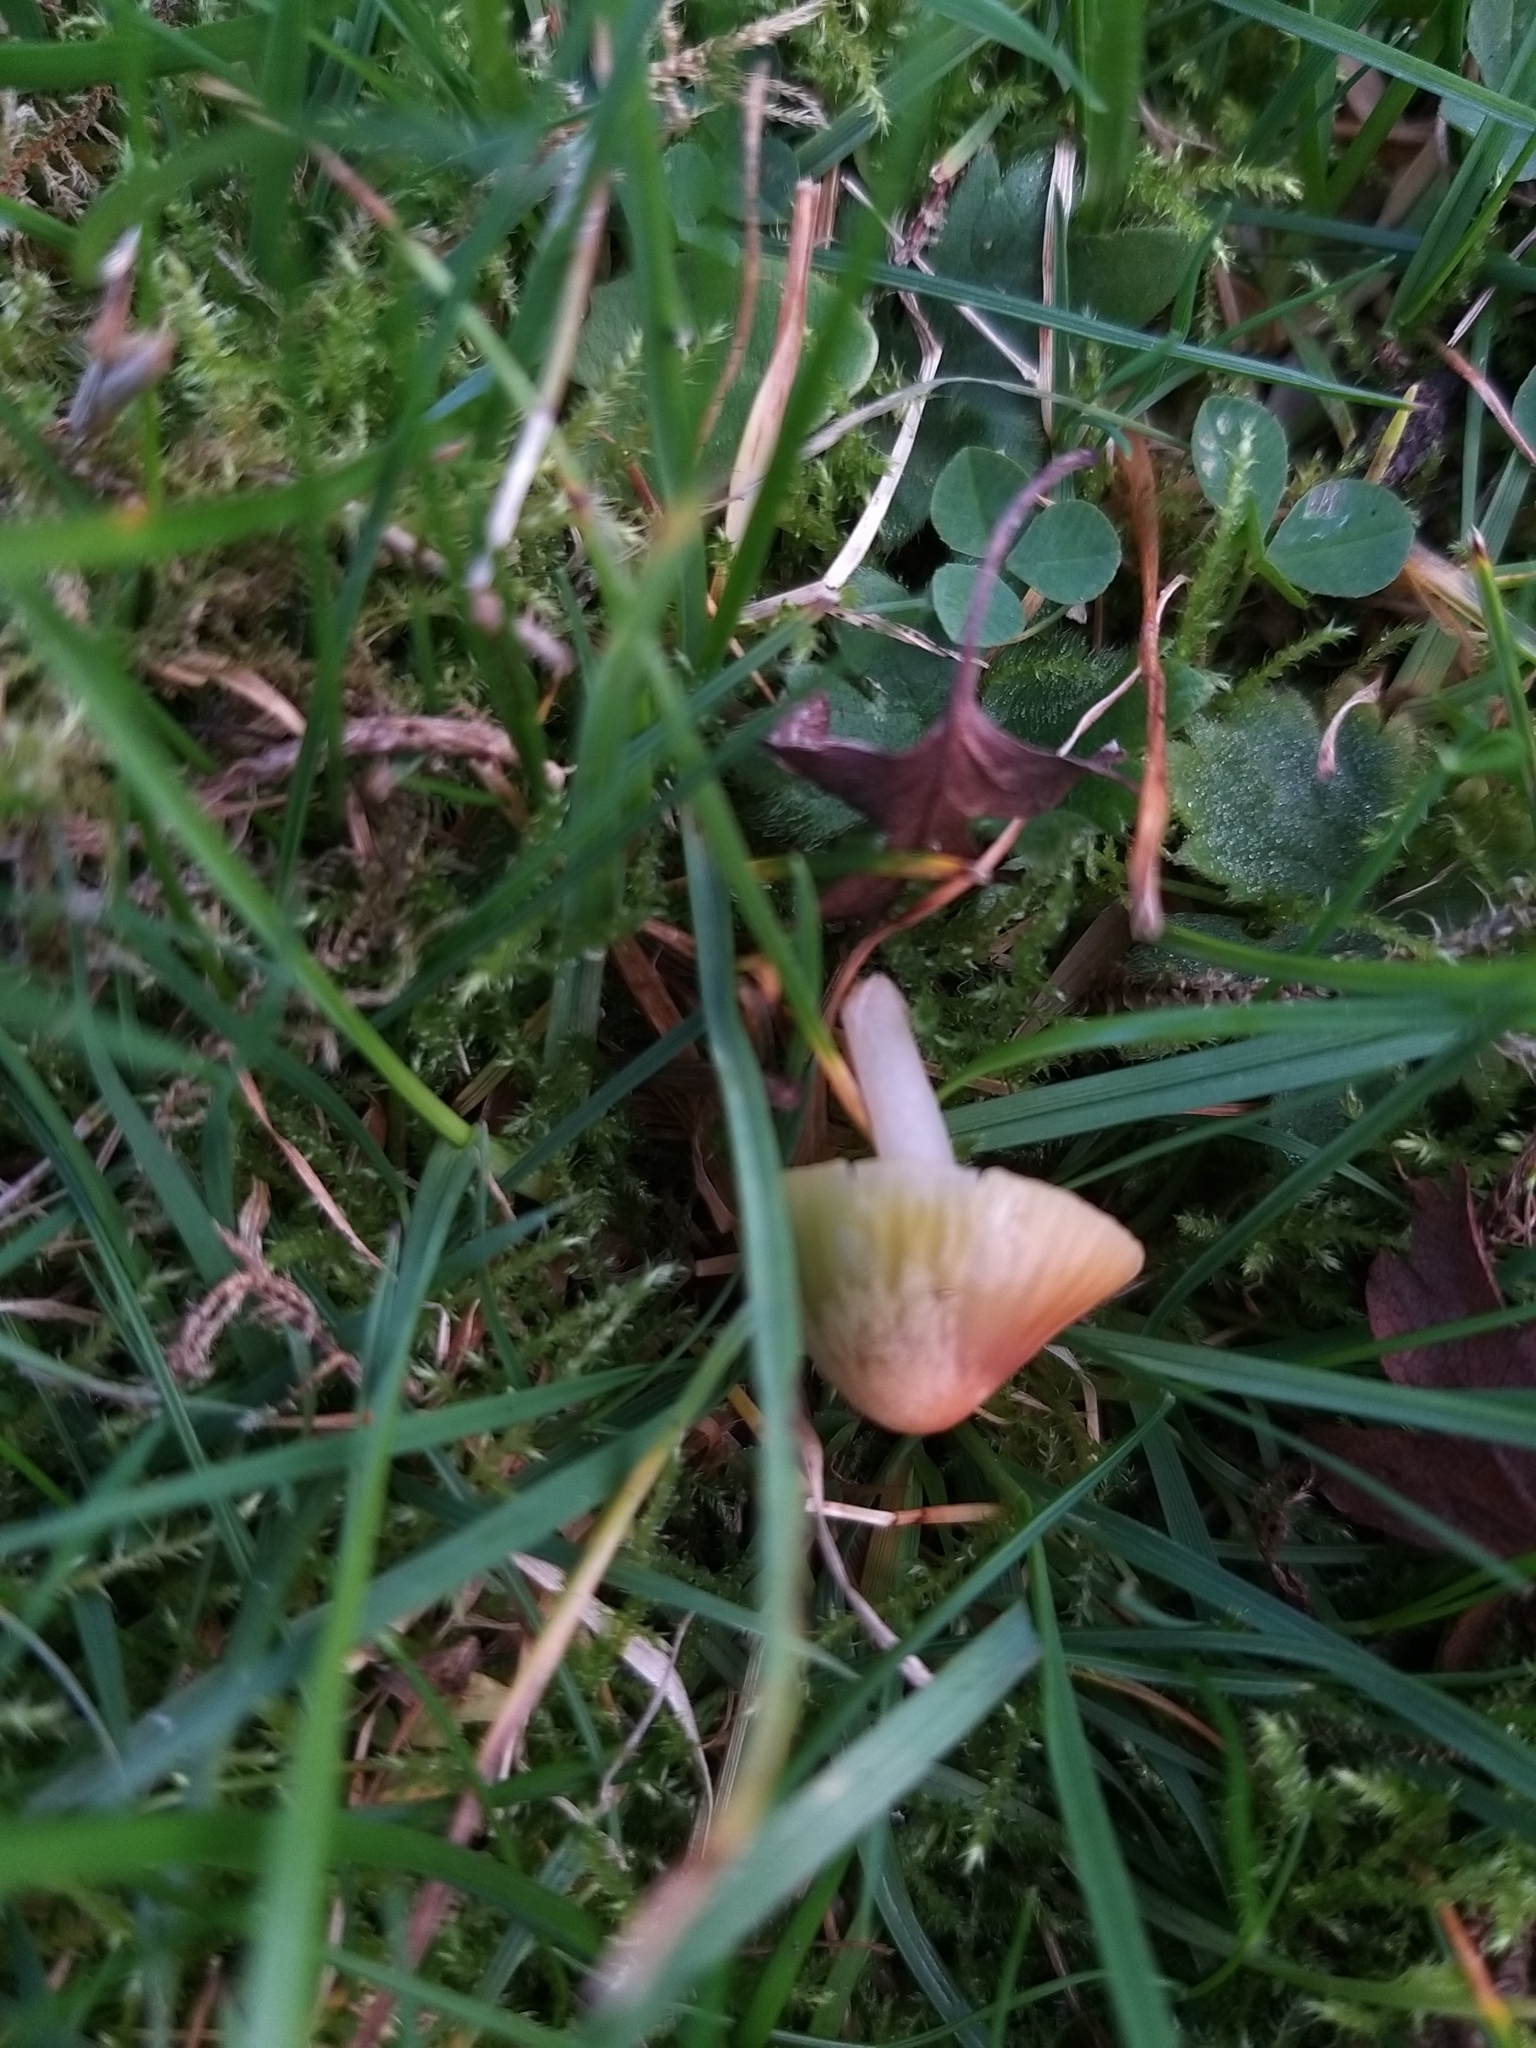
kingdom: Fungi
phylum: Basidiomycota
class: Agaricomycetes
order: Agaricales
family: Hygrophoraceae
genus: Gliophorus
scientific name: Gliophorus psittacinus
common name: Parrot wax-cap
